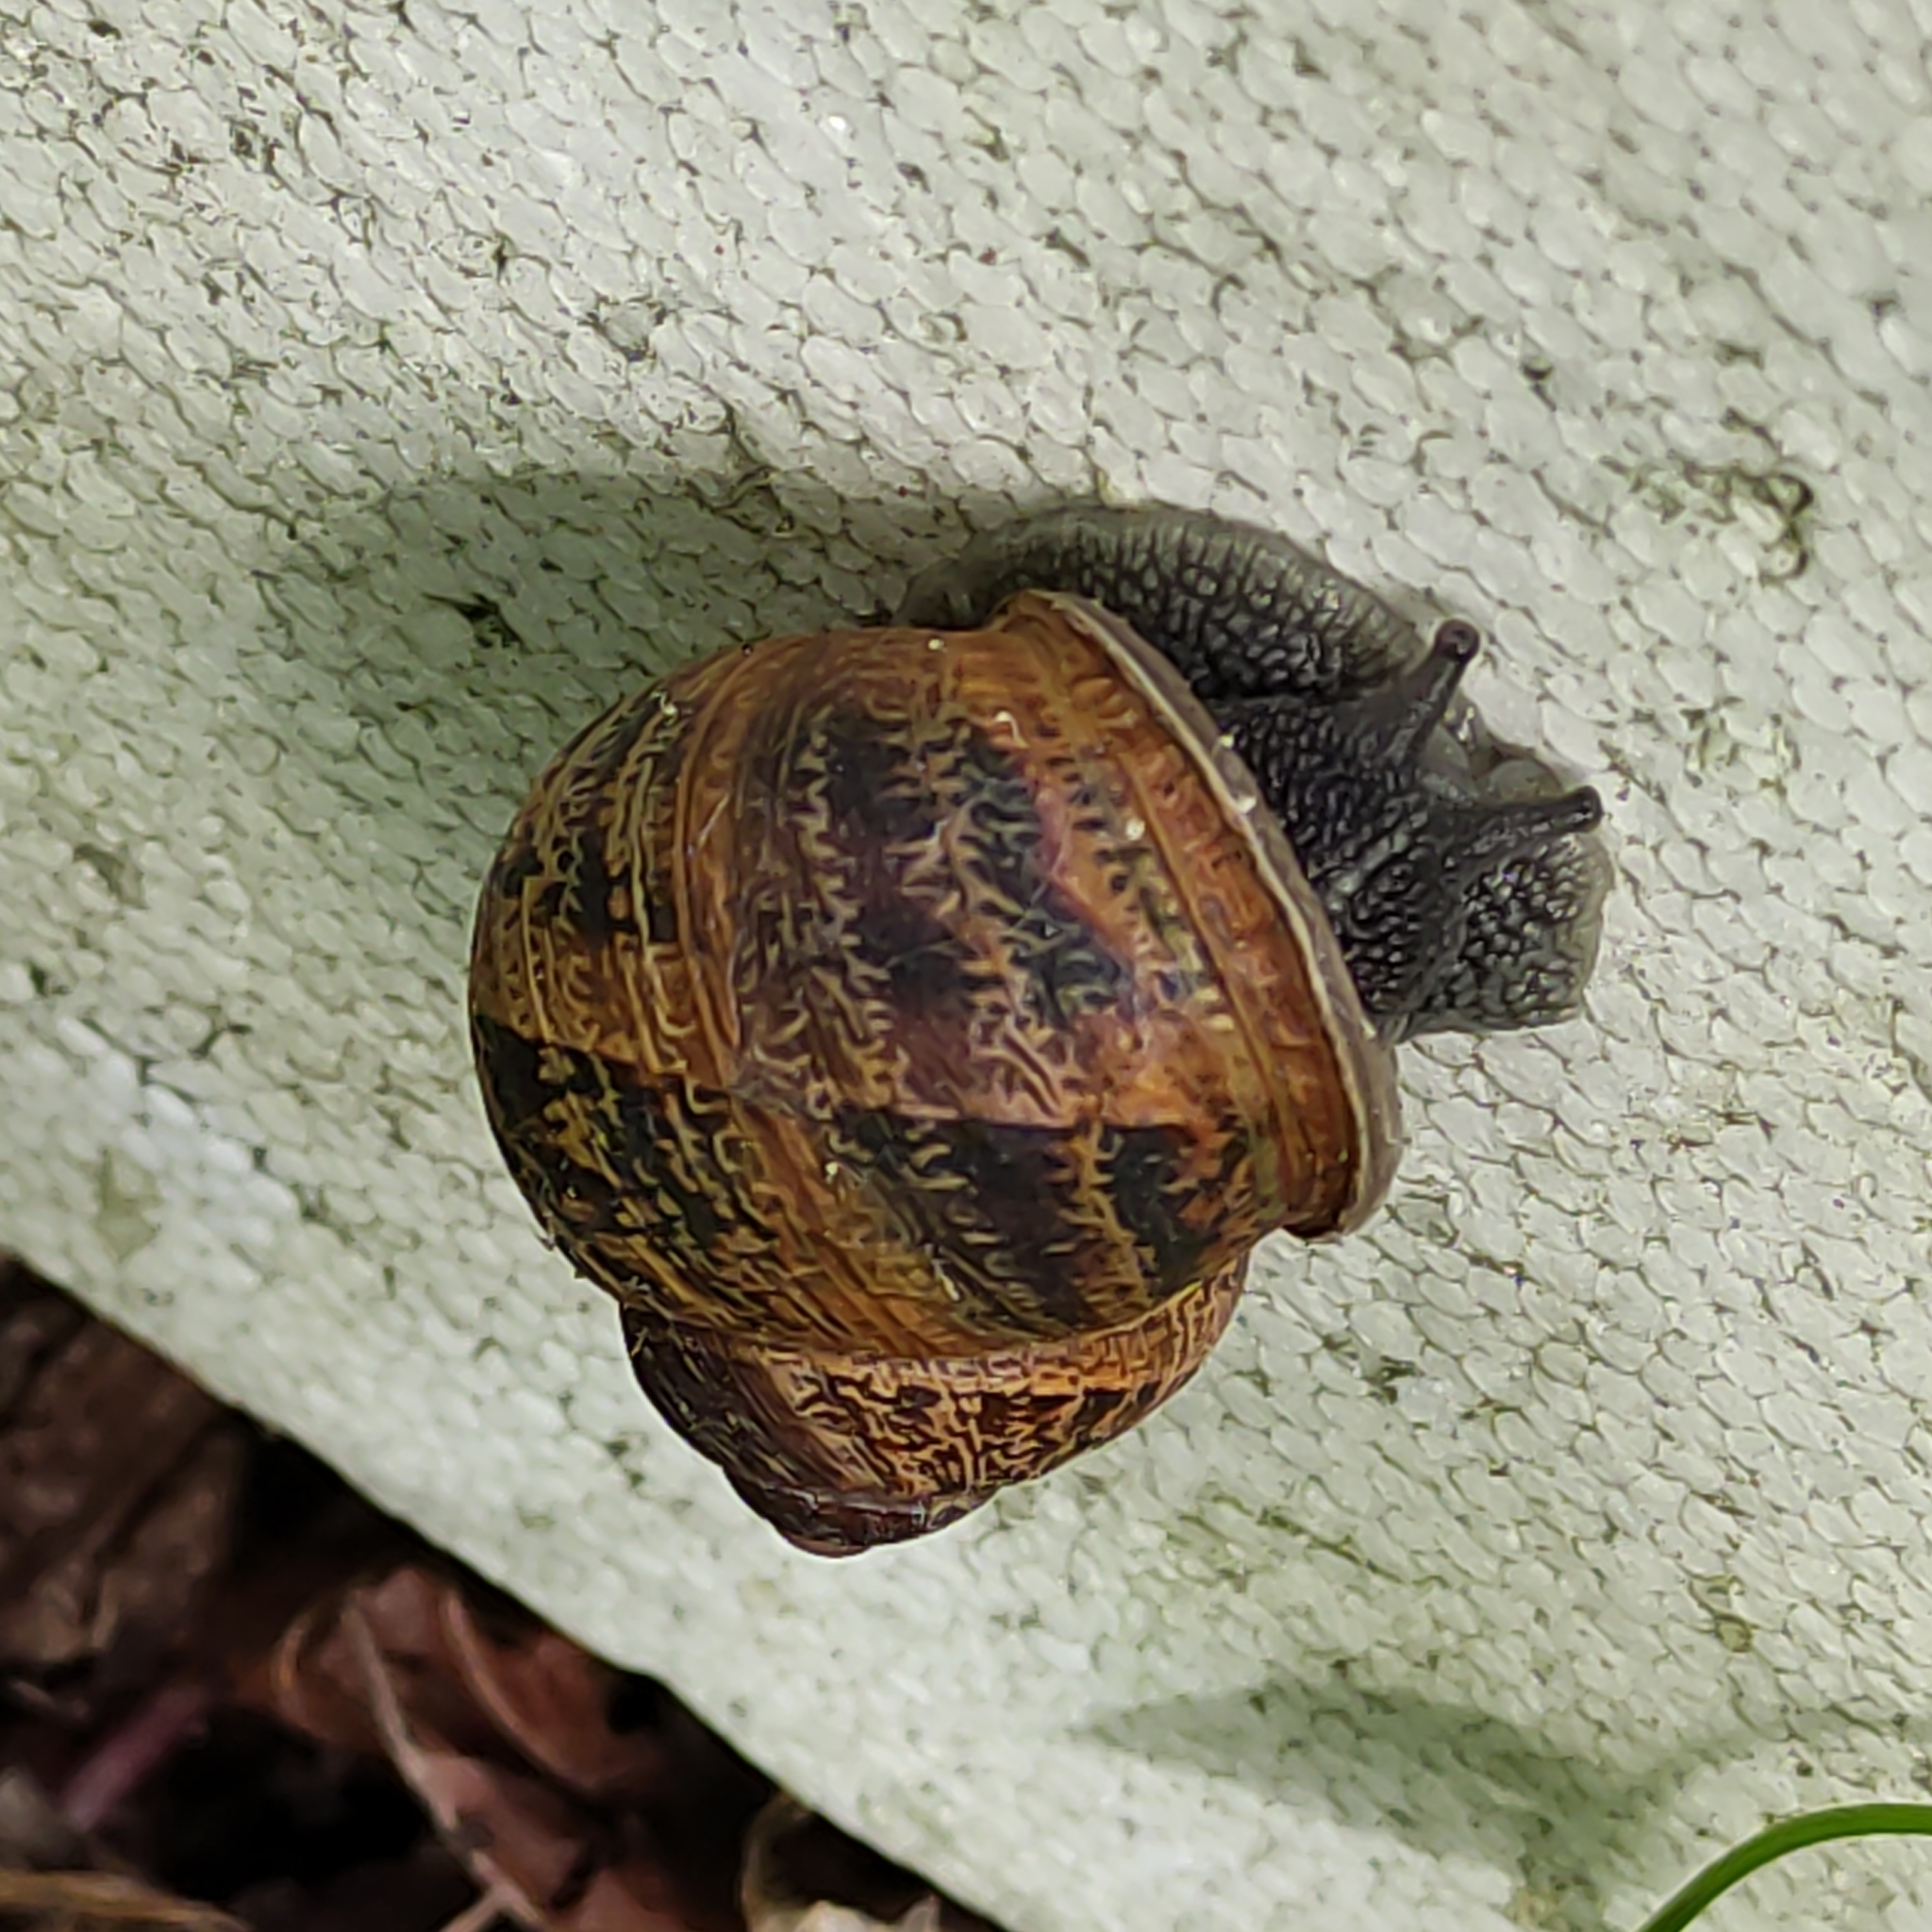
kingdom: Animalia
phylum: Mollusca
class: Gastropoda
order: Stylommatophora
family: Helicidae
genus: Cornu
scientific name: Cornu aspersum
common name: Brown garden snail
